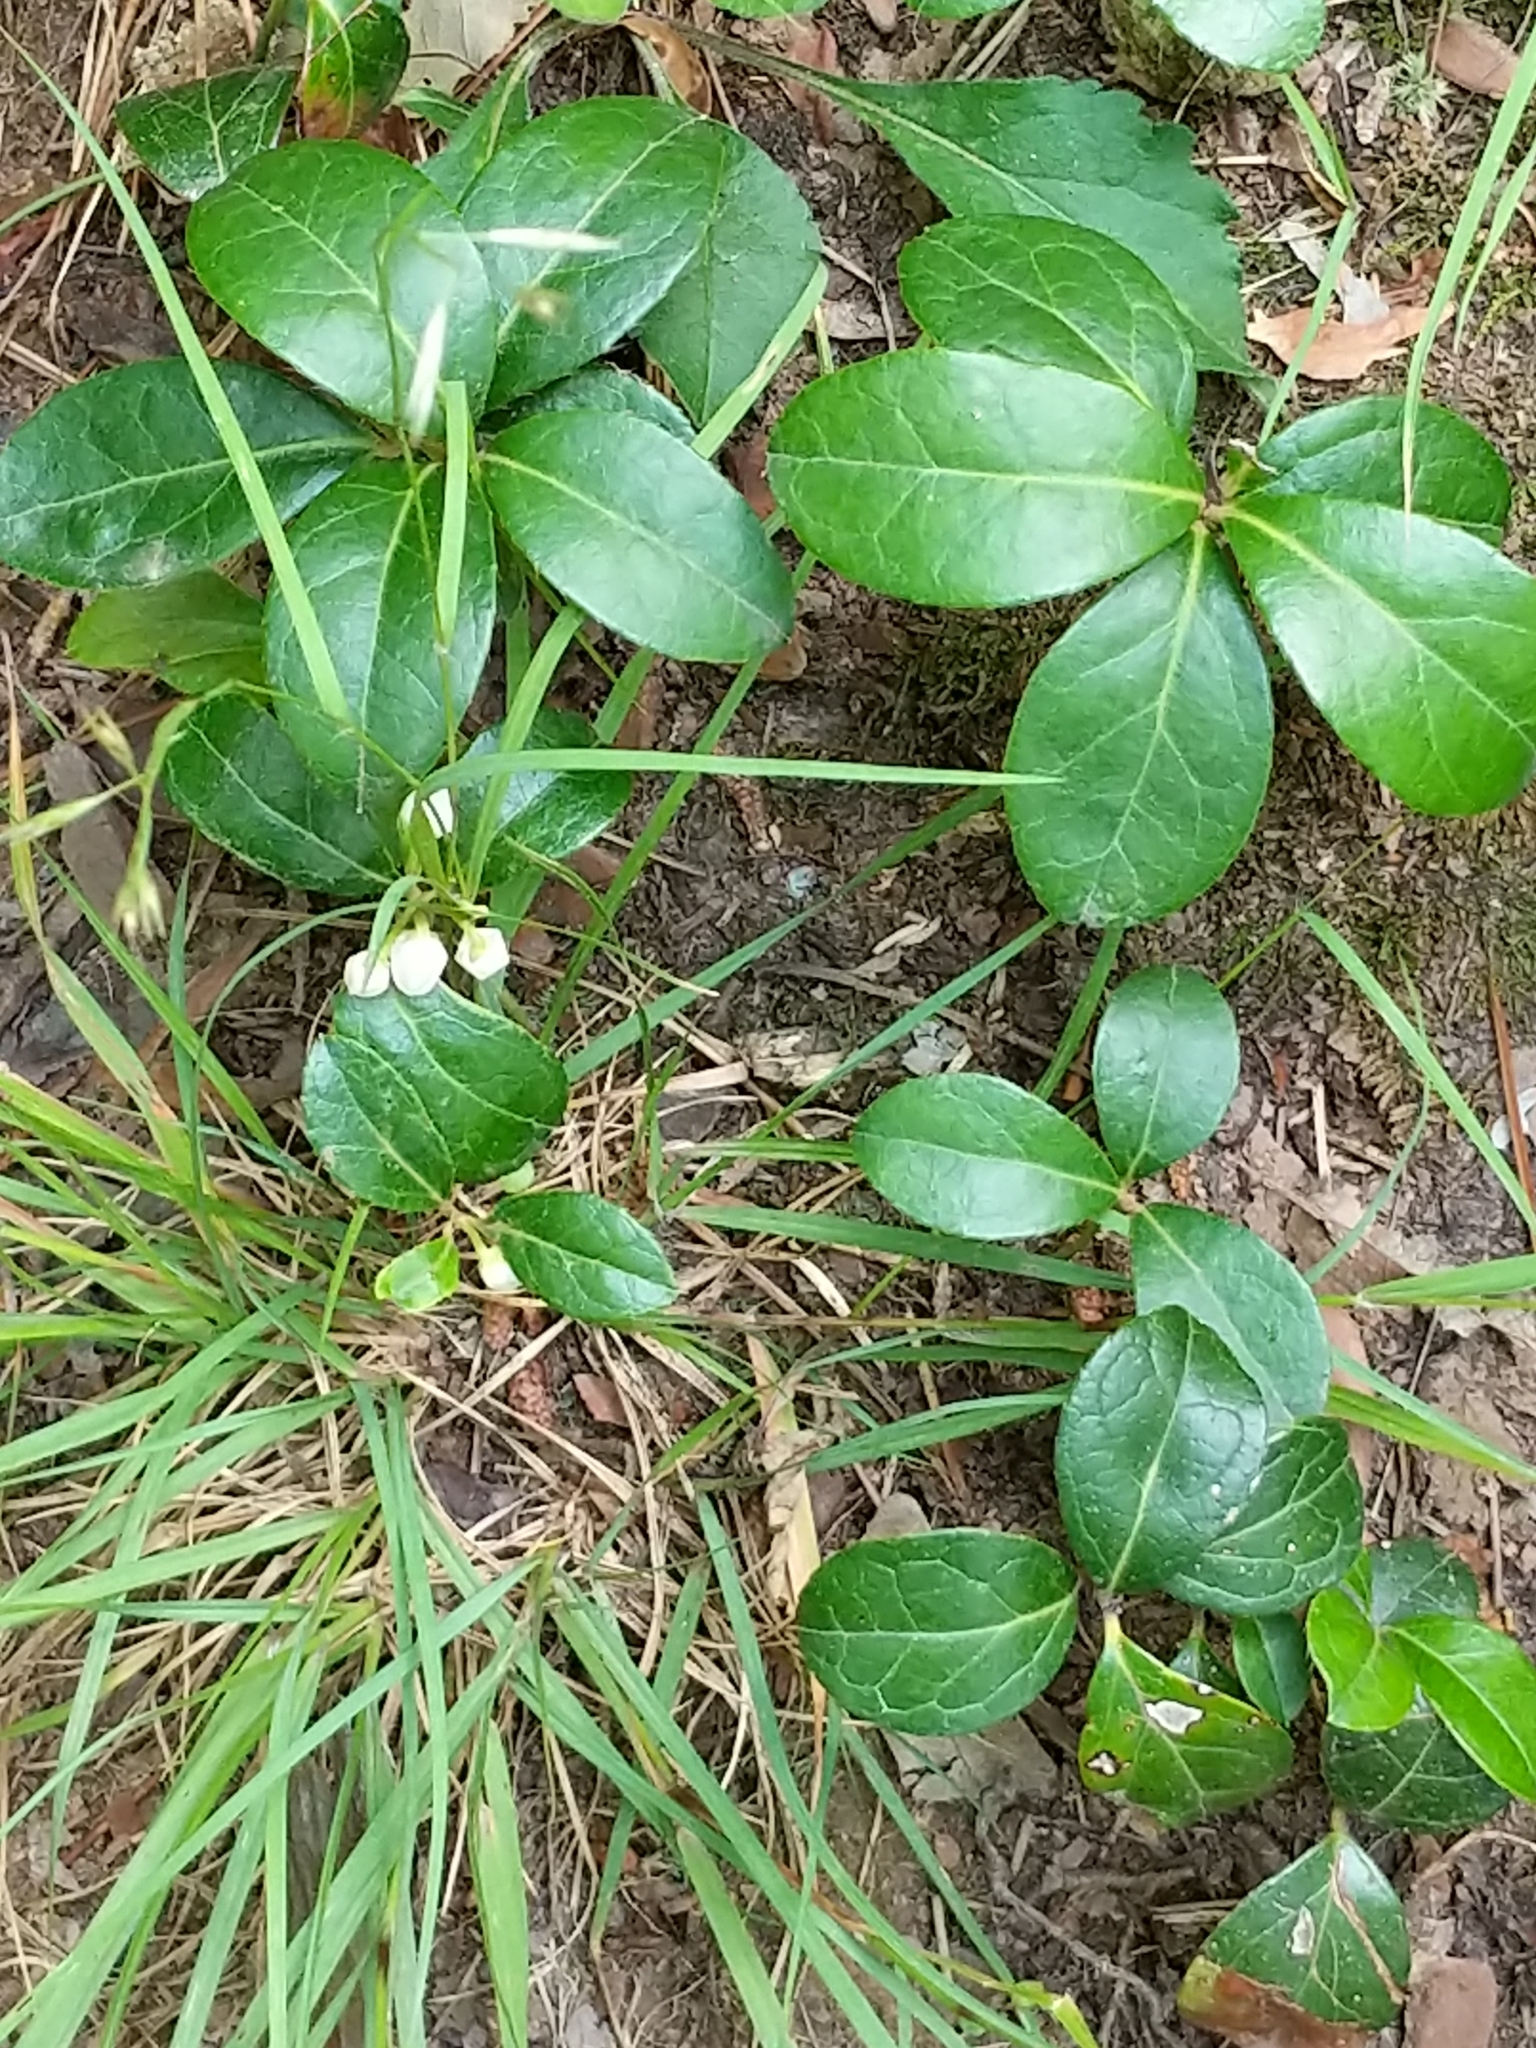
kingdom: Plantae
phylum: Tracheophyta
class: Magnoliopsida
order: Ericales
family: Ericaceae
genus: Gaultheria
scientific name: Gaultheria procumbens
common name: Checkerberry
